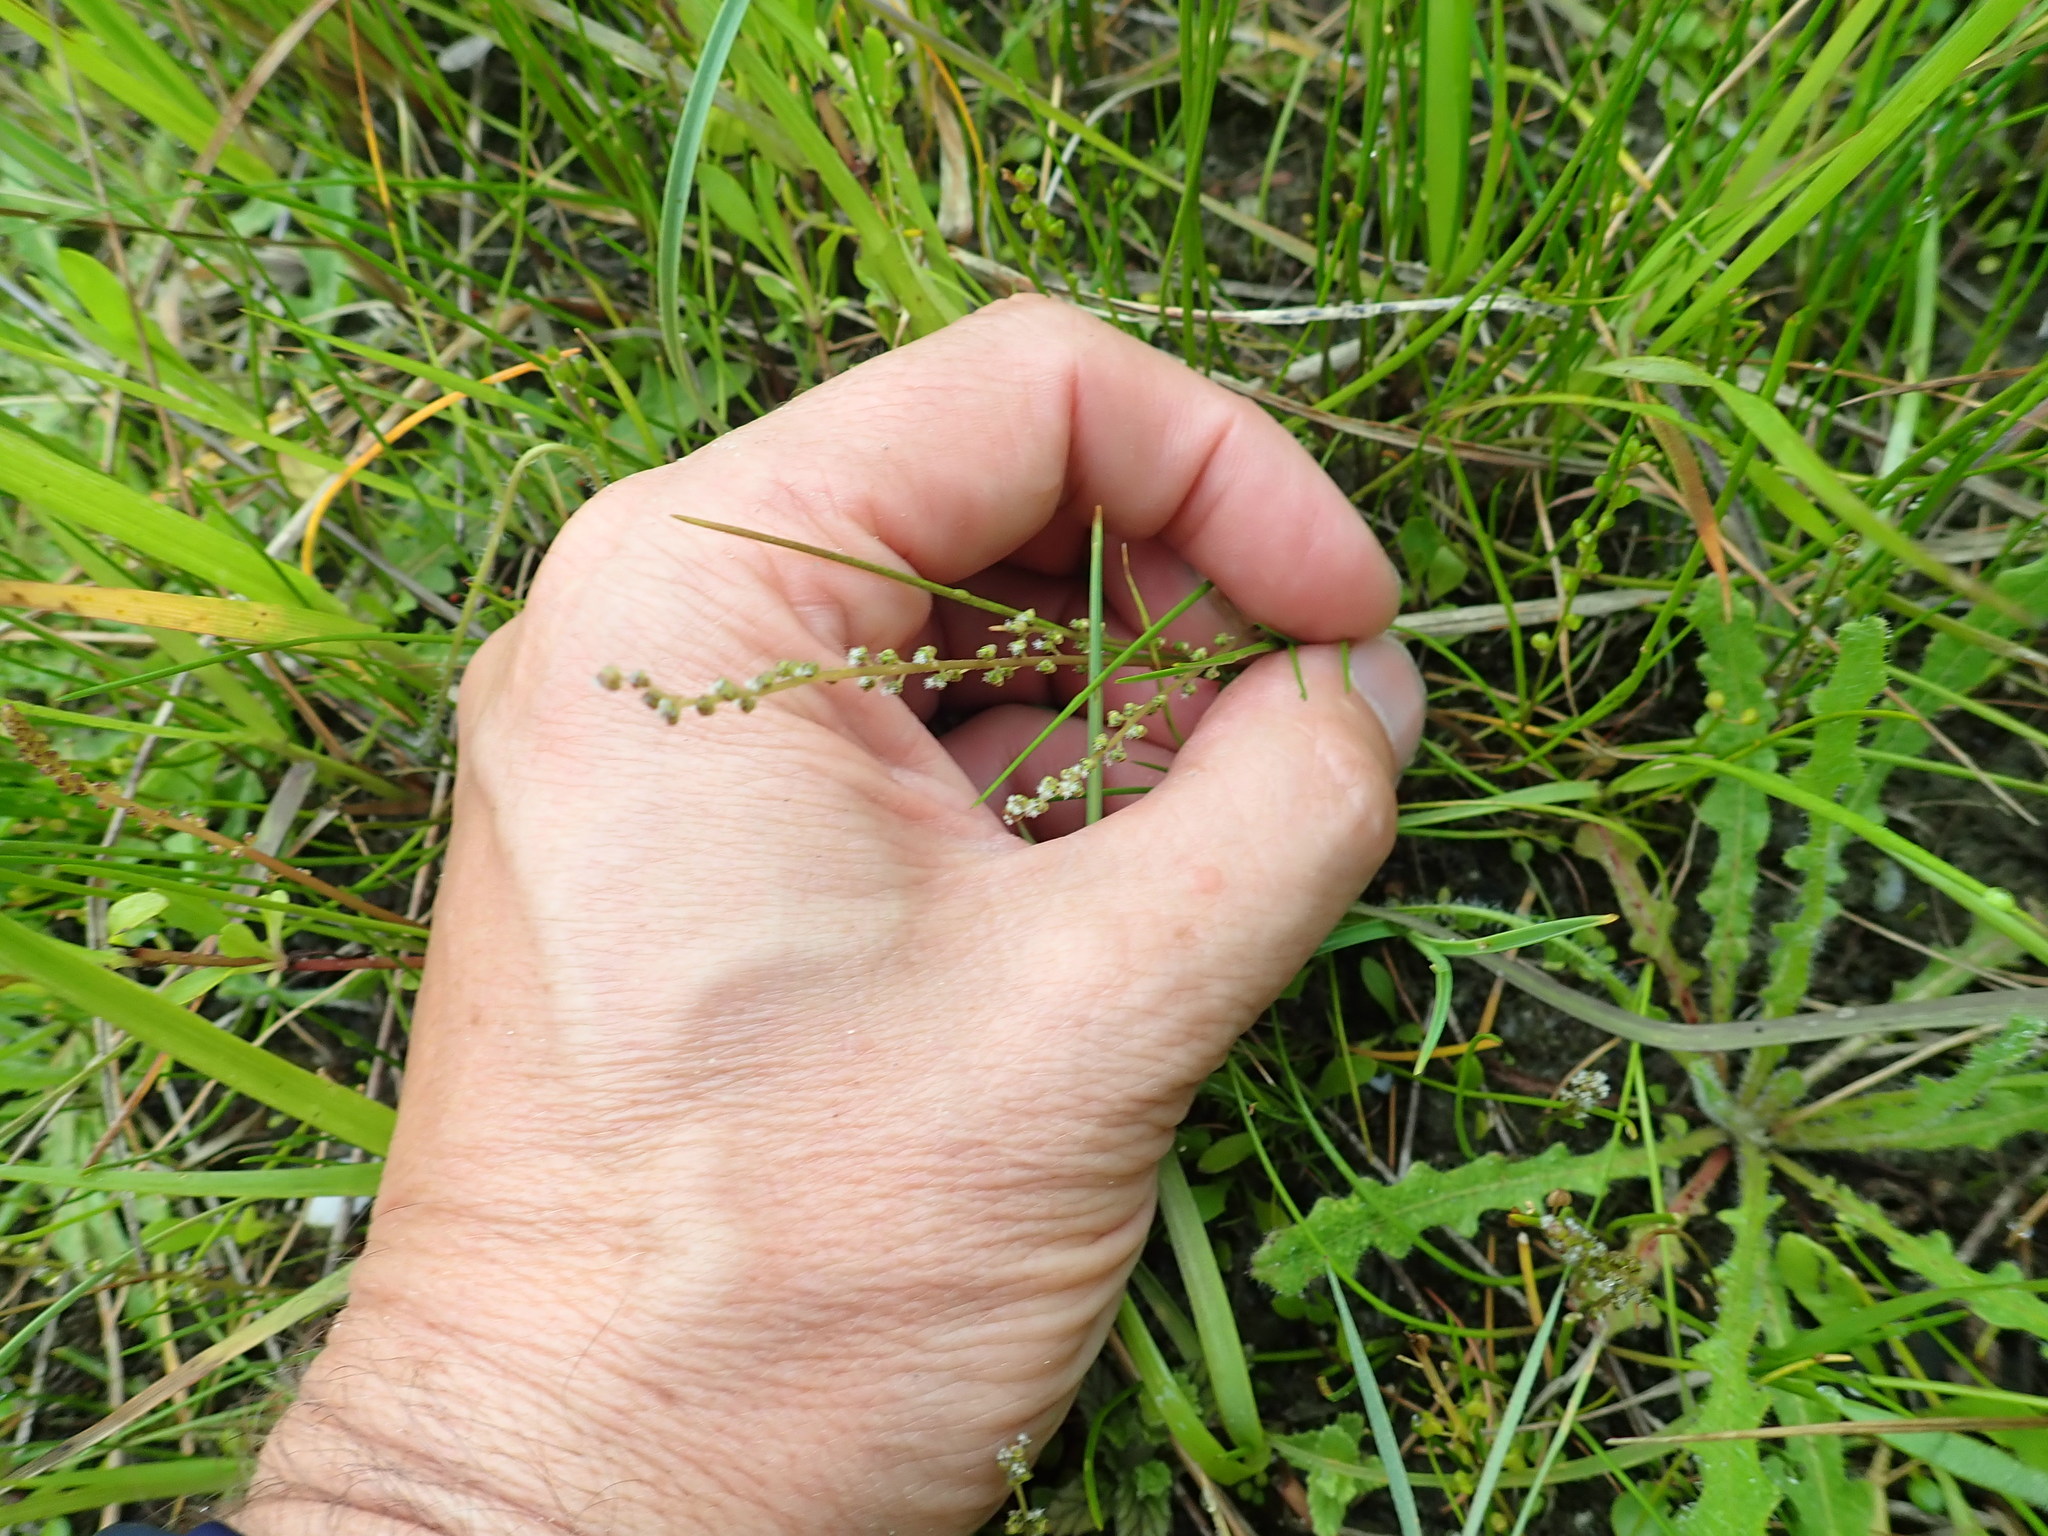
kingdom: Plantae
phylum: Tracheophyta
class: Liliopsida
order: Alismatales
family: Juncaginaceae
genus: Triglochin
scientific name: Triglochin striata
